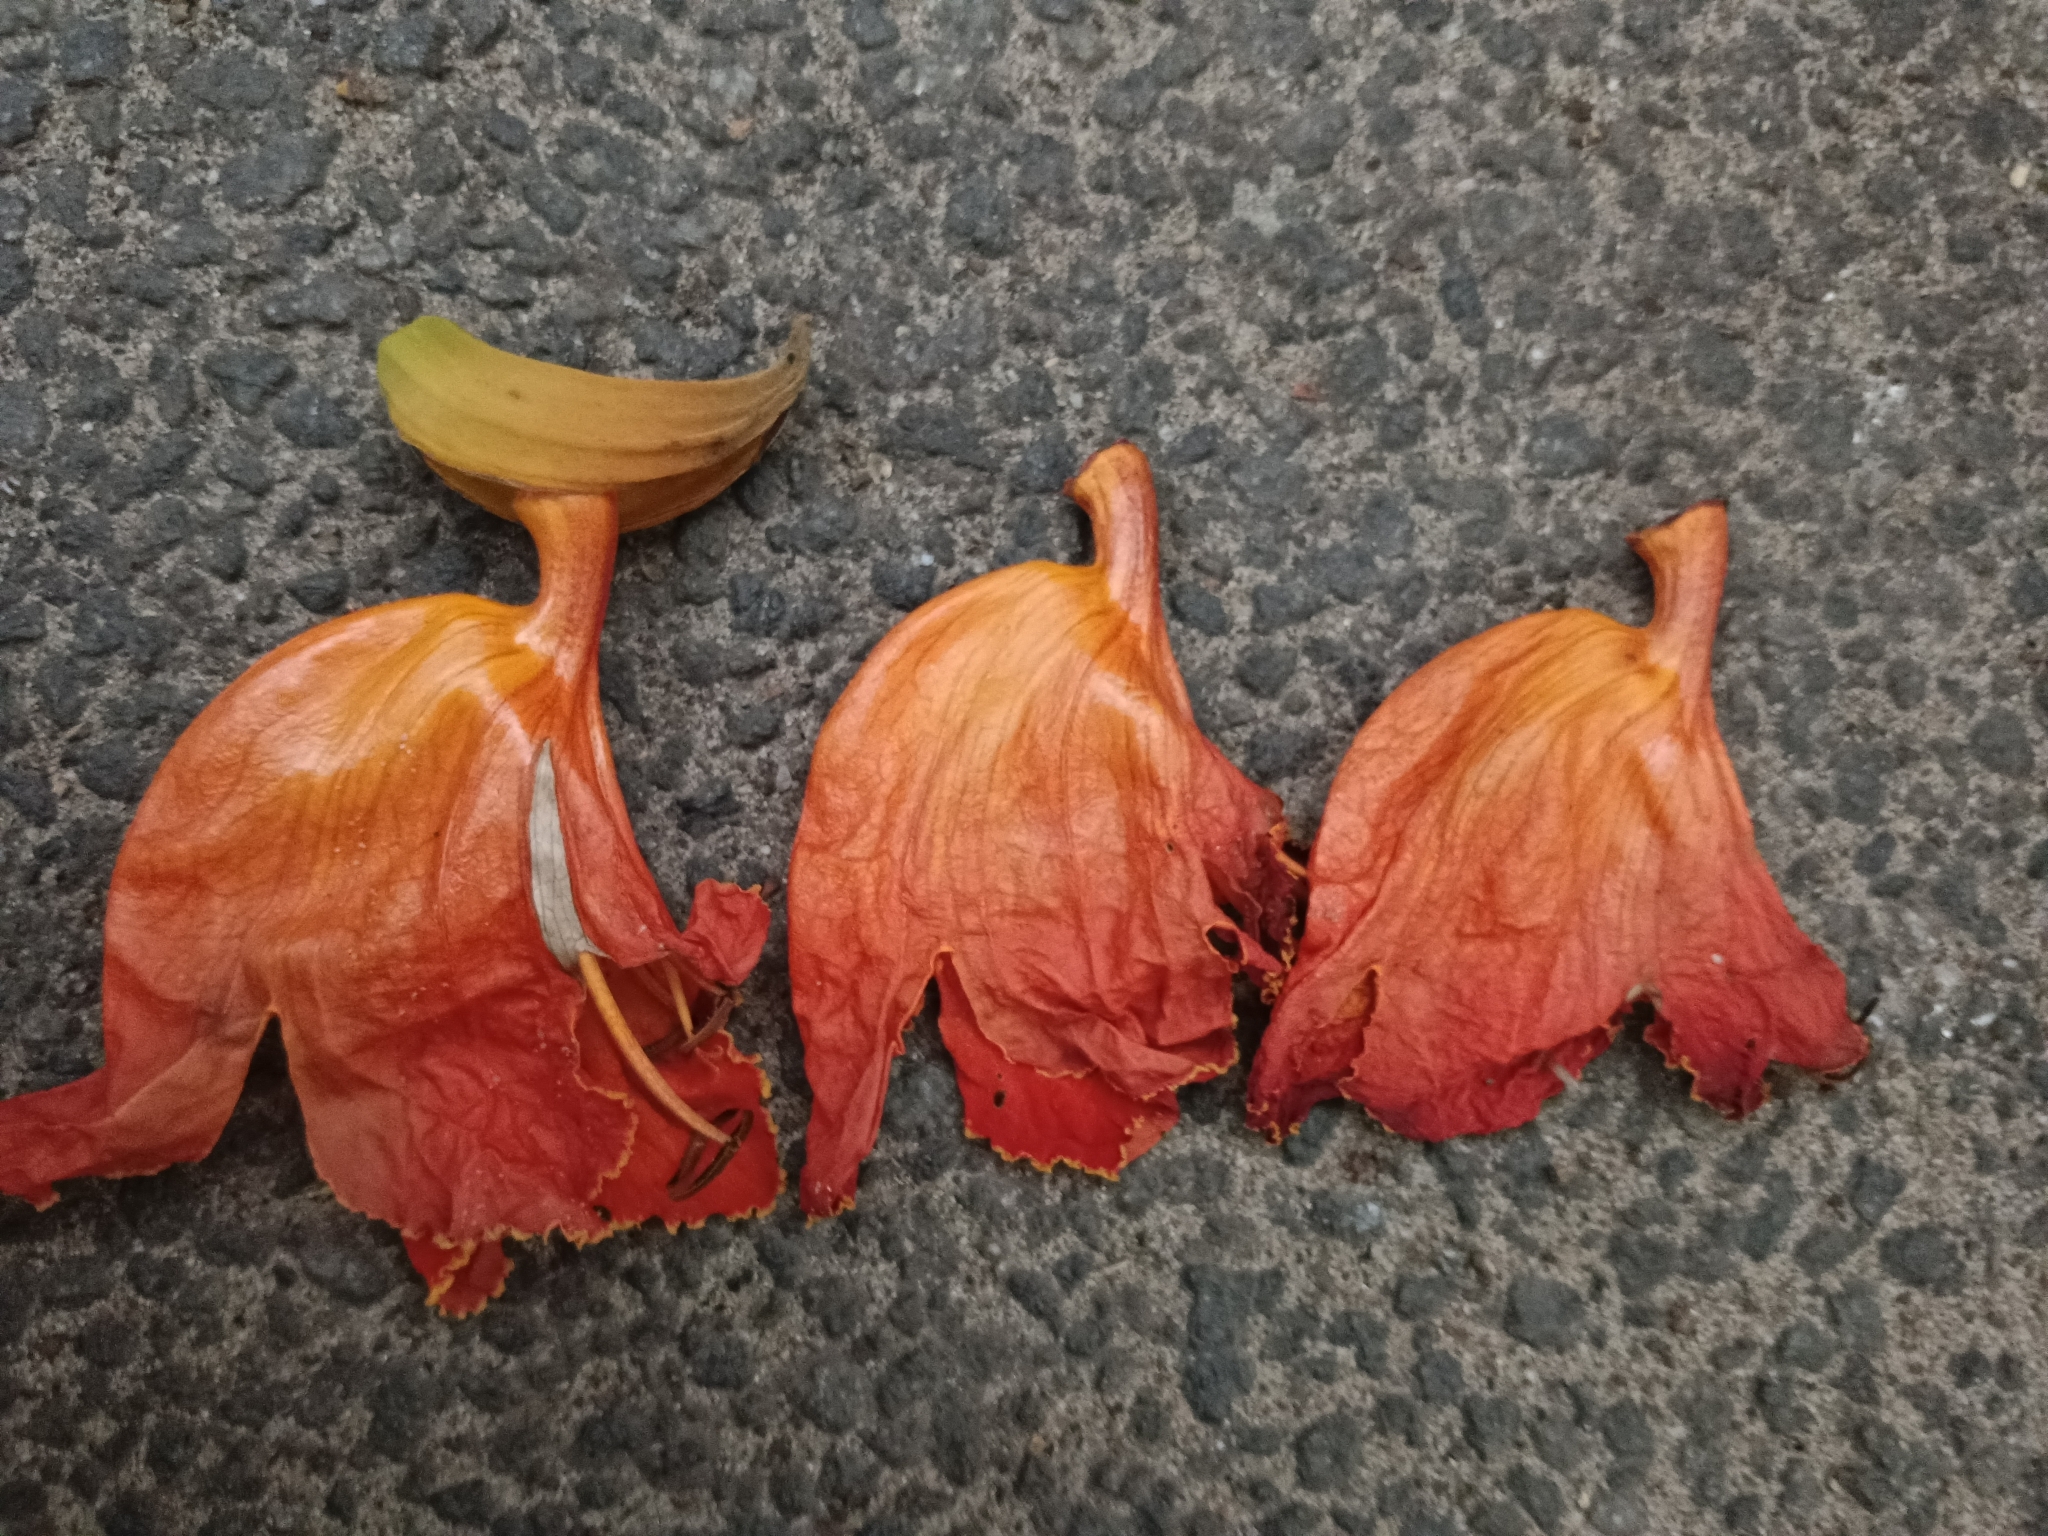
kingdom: Plantae
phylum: Tracheophyta
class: Magnoliopsida
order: Lamiales
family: Bignoniaceae
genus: Spathodea
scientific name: Spathodea campanulata
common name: African tuliptree
